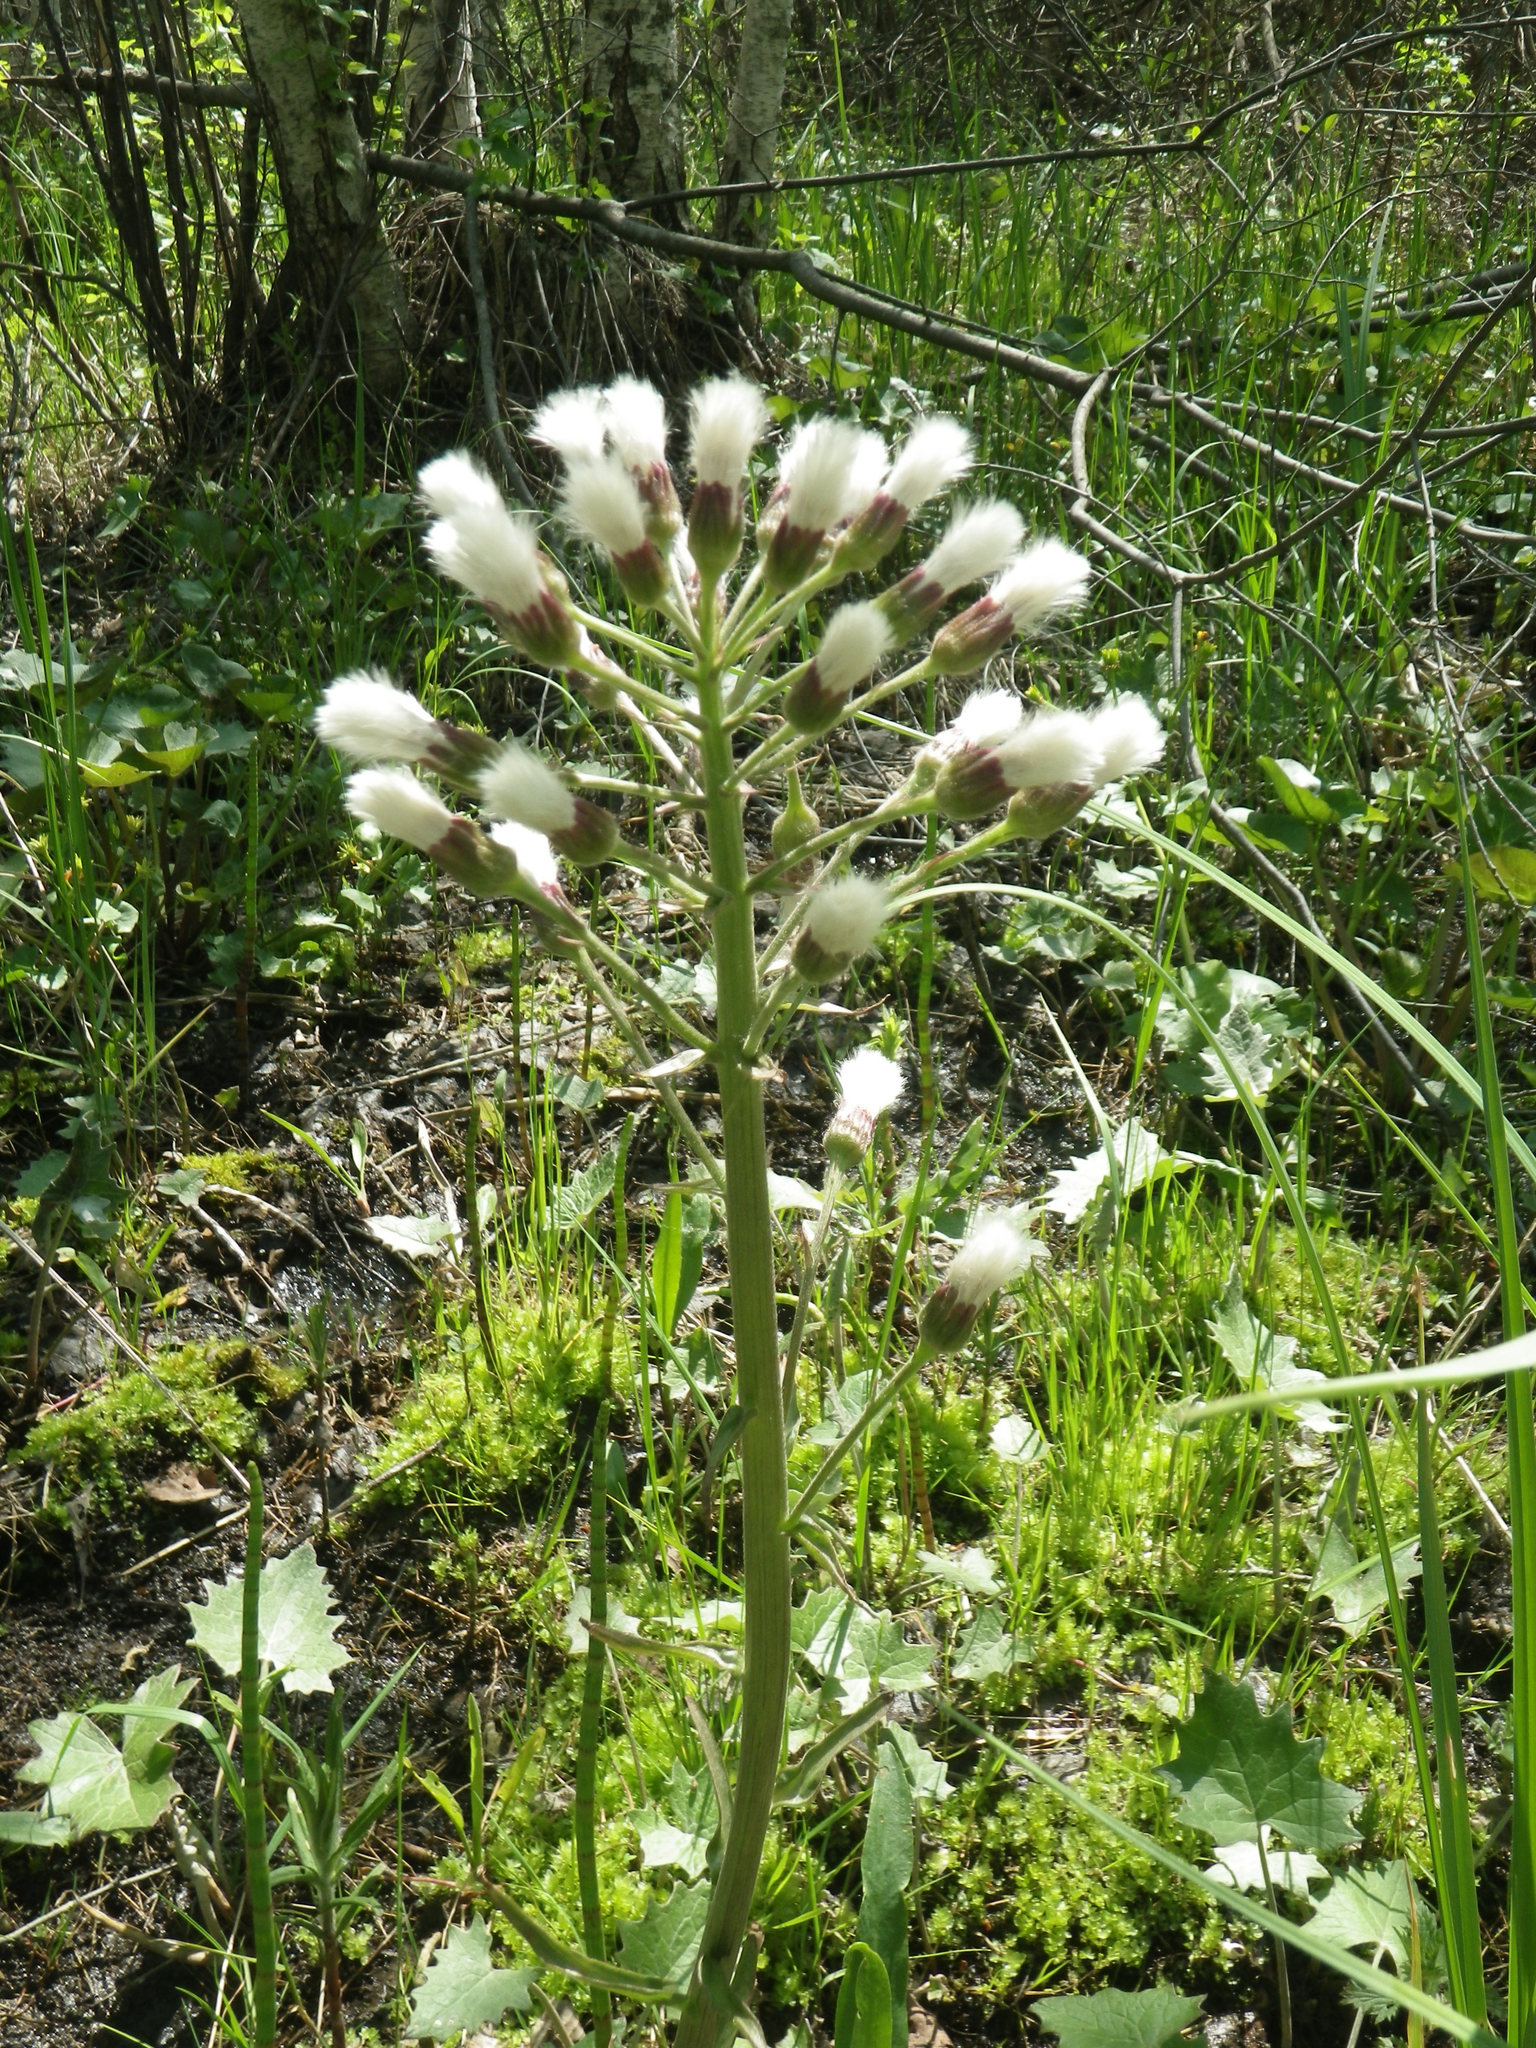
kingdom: Plantae
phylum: Tracheophyta
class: Magnoliopsida
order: Asterales
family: Asteraceae
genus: Petasites
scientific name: Petasites frigidus
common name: Arctic butterbur
